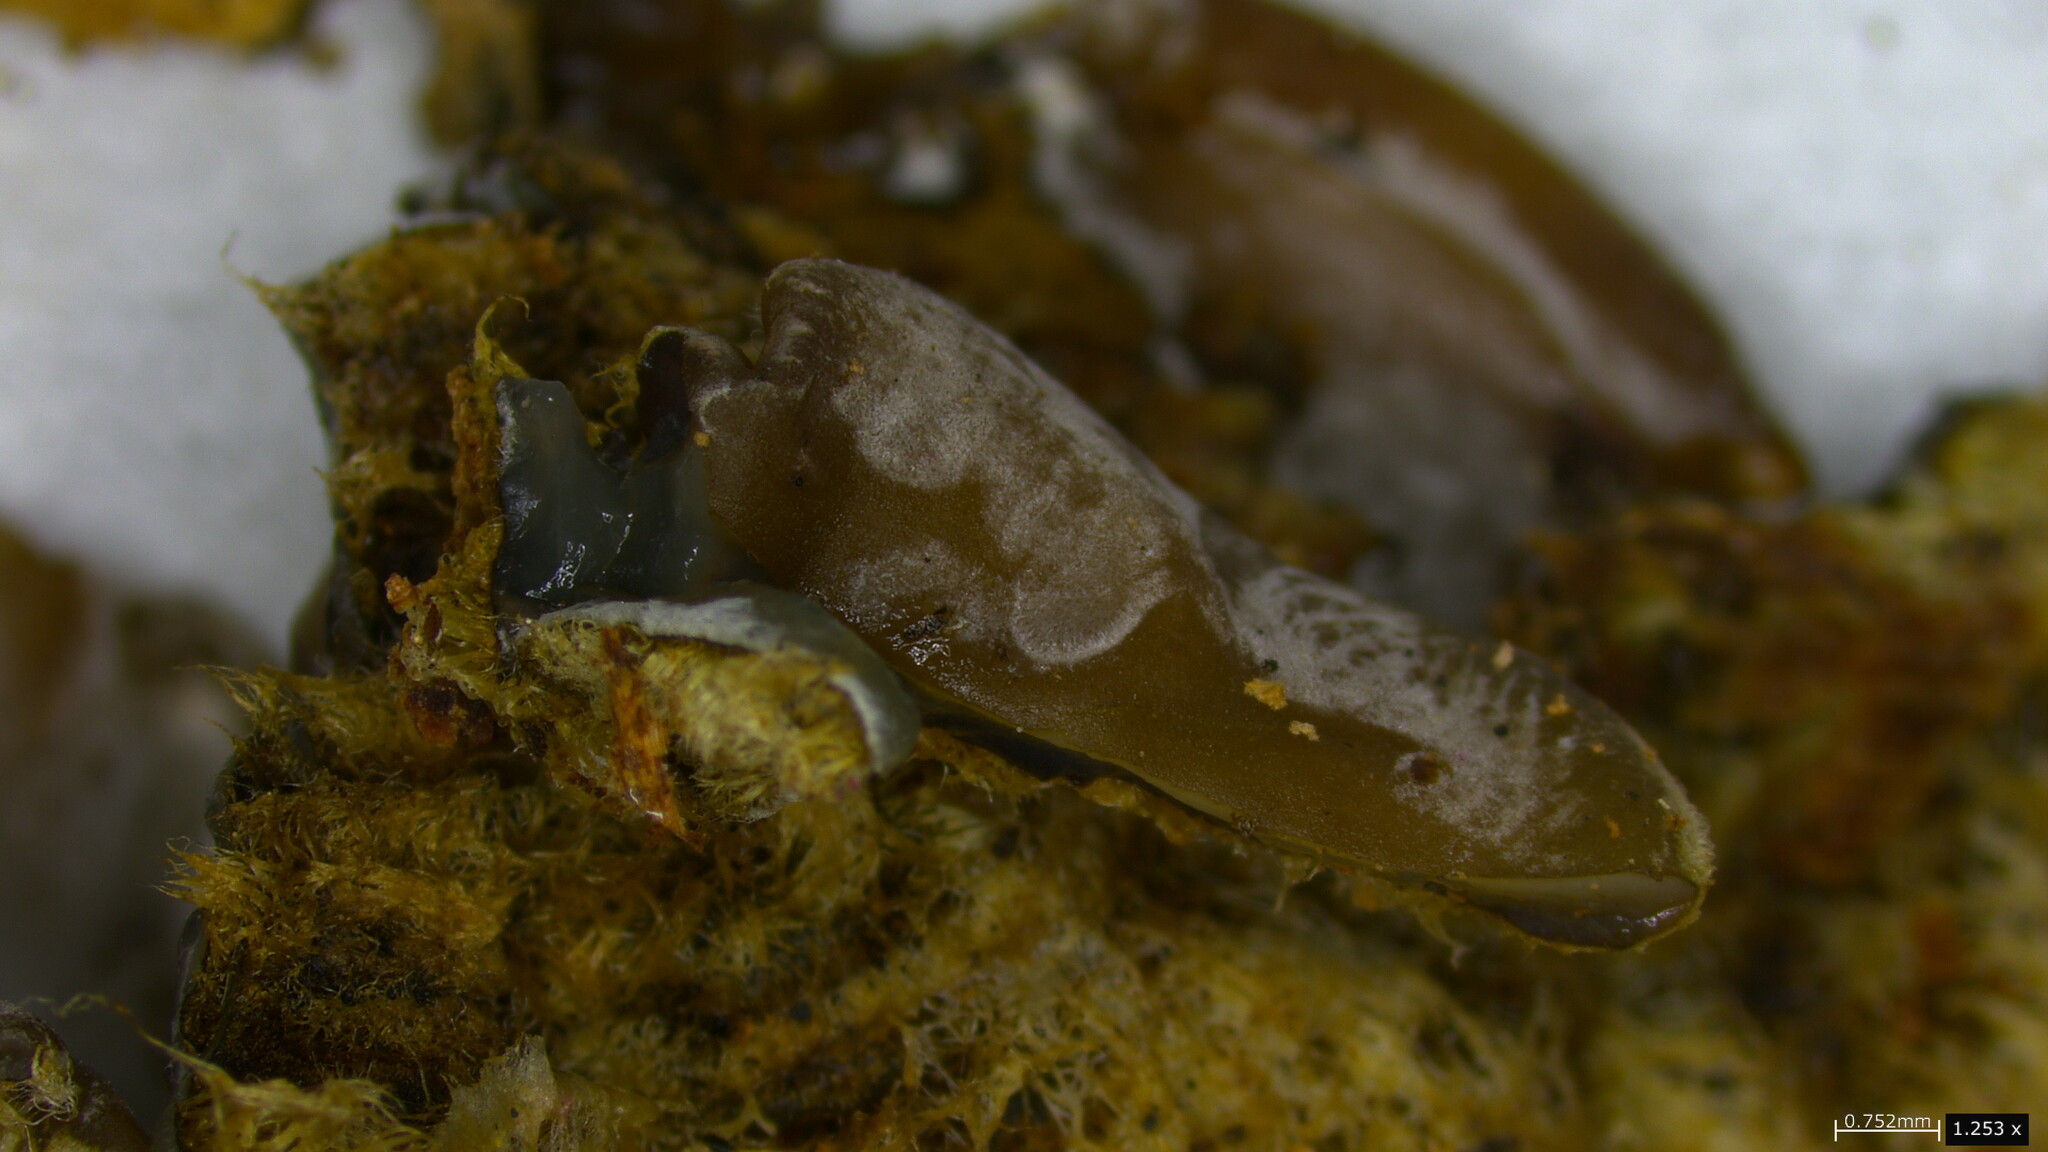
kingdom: Fungi
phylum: Basidiomycota
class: Agaricomycetes
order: Auriculariales
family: Auriculariaceae
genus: Auricularia
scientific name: Auricularia mesenterica
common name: Tripe fungus
